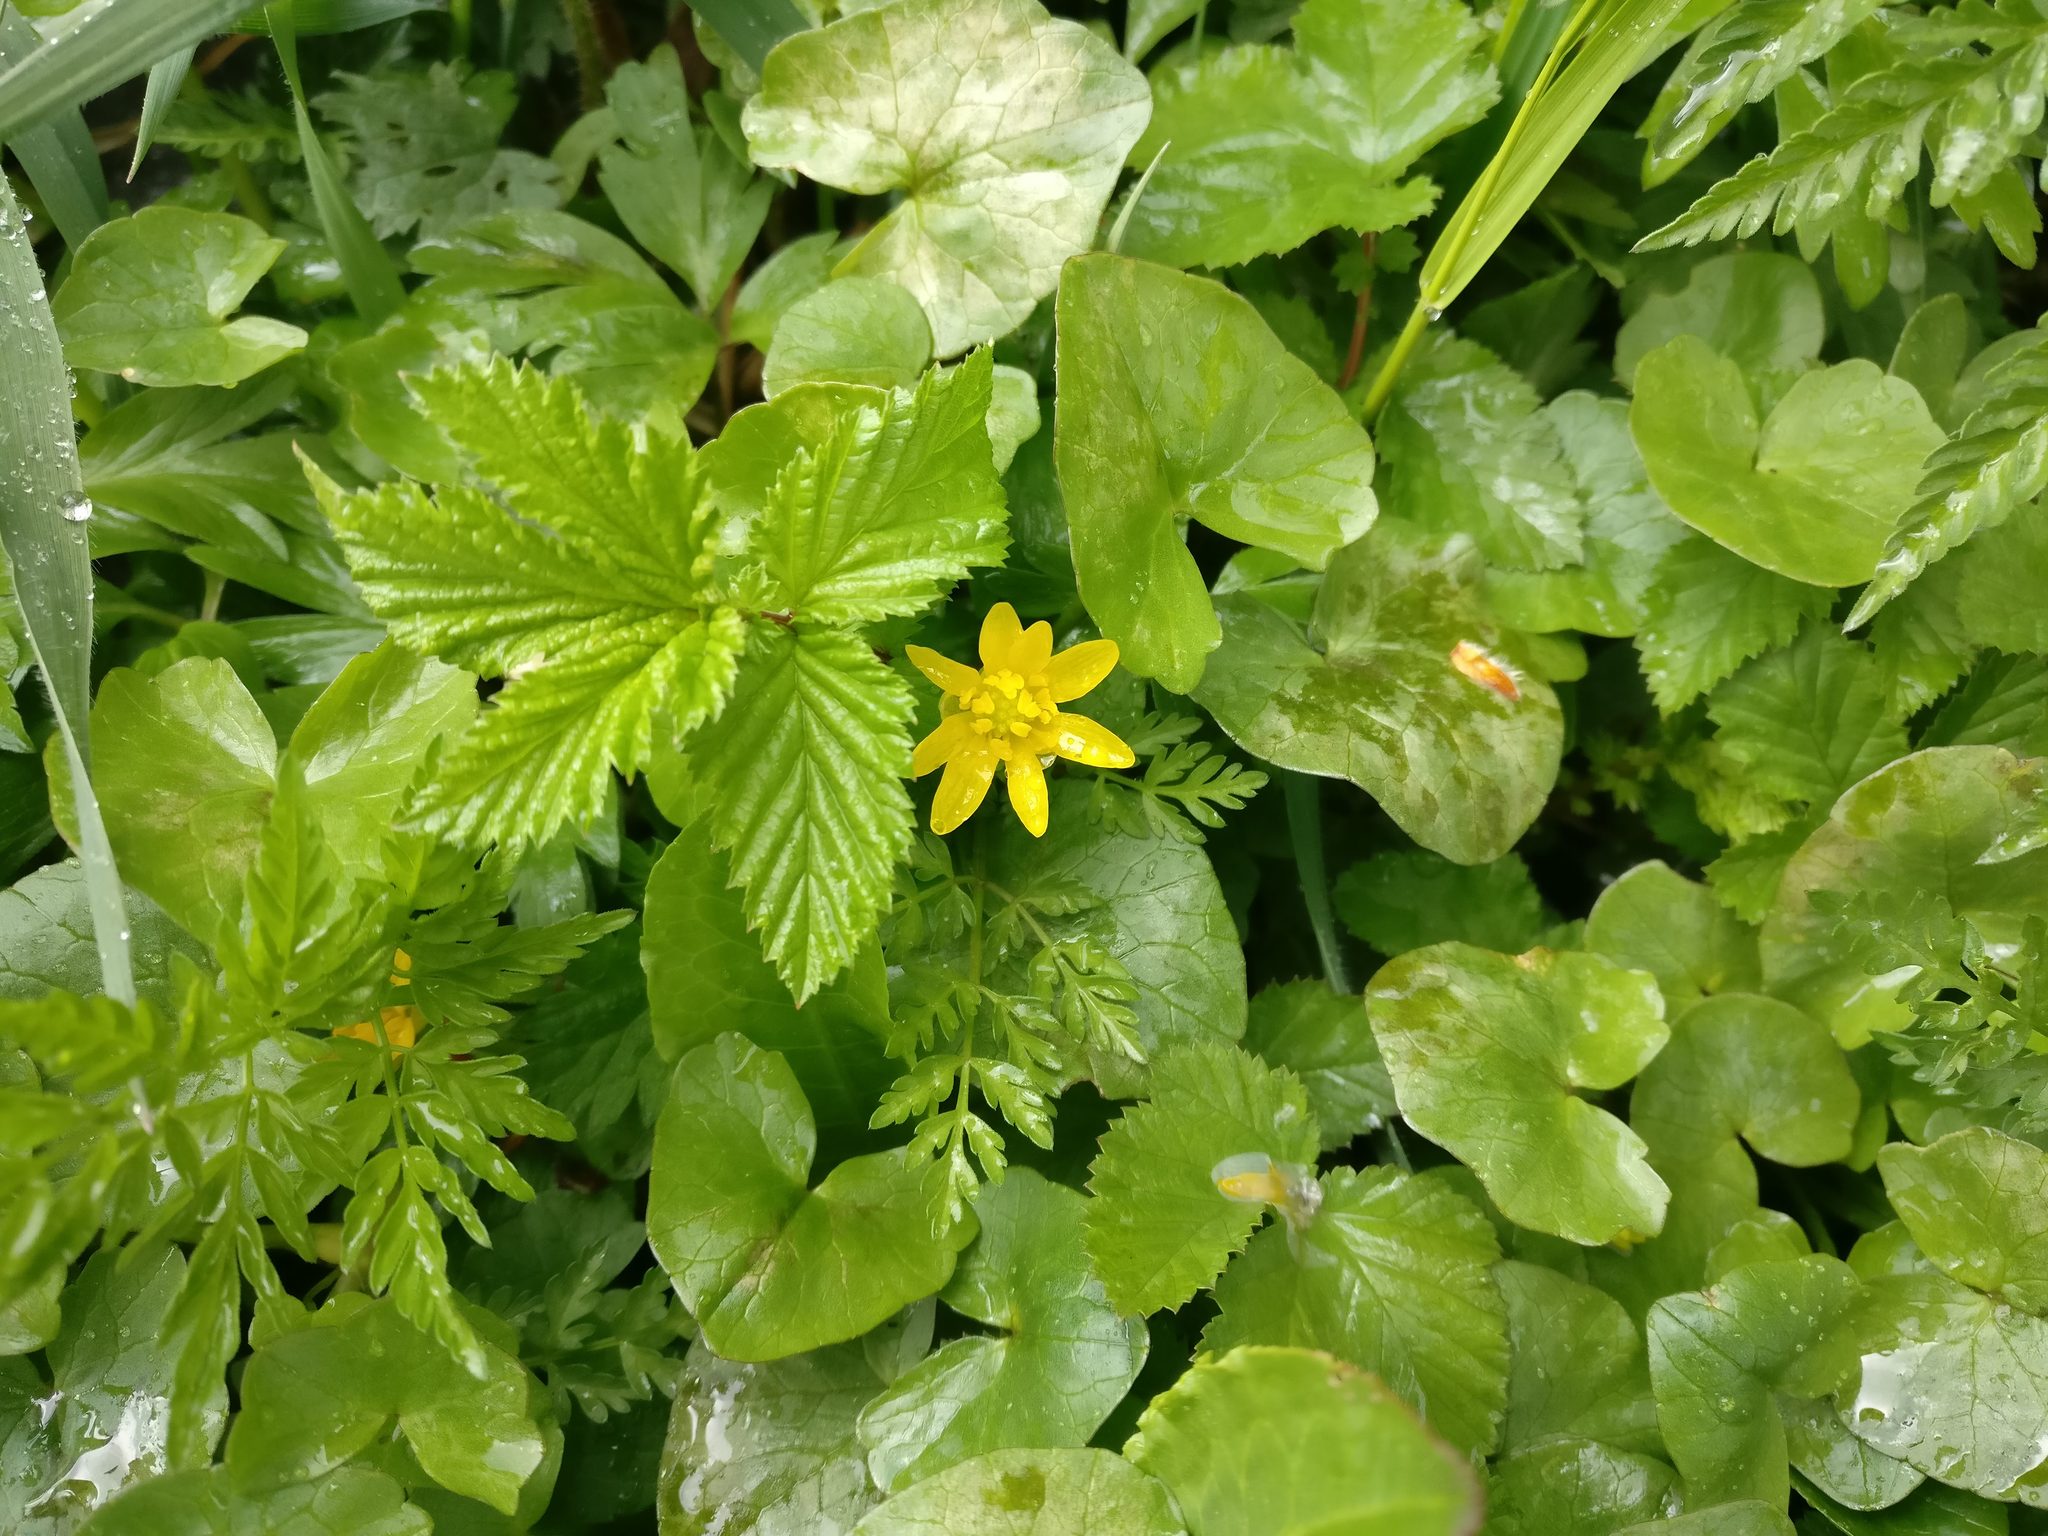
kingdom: Plantae
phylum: Tracheophyta
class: Magnoliopsida
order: Ranunculales
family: Ranunculaceae
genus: Ficaria
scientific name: Ficaria verna
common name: Lesser celandine
